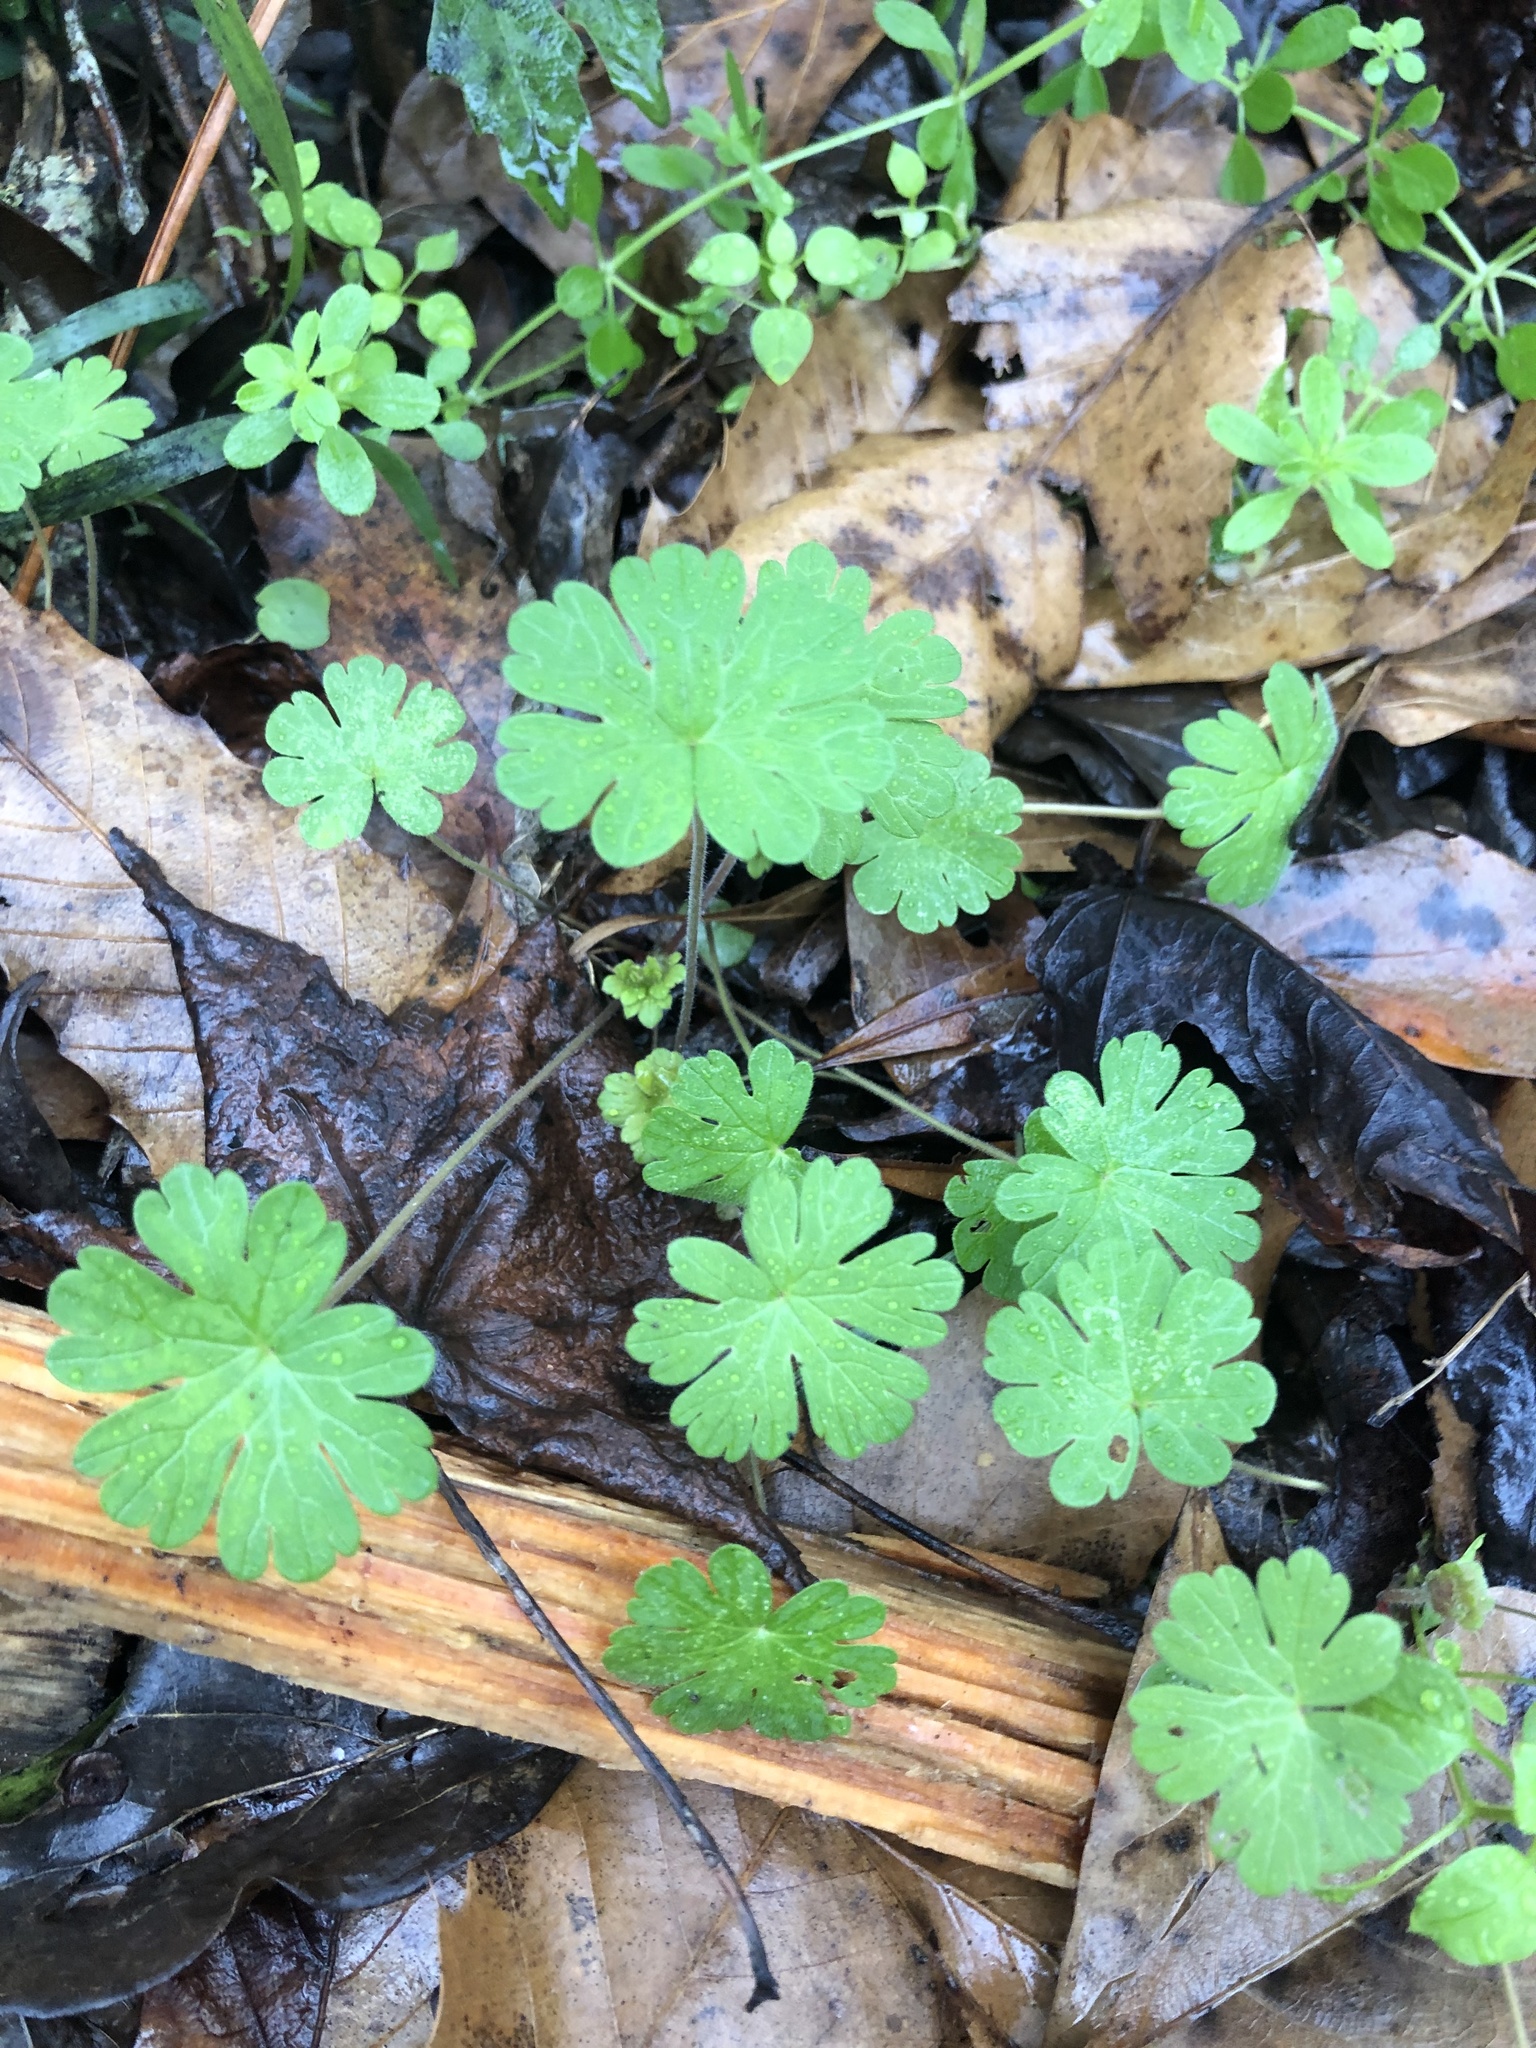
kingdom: Plantae
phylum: Tracheophyta
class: Magnoliopsida
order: Geraniales
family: Geraniaceae
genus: Geranium
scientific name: Geranium carolinianum
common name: Carolina crane's-bill
